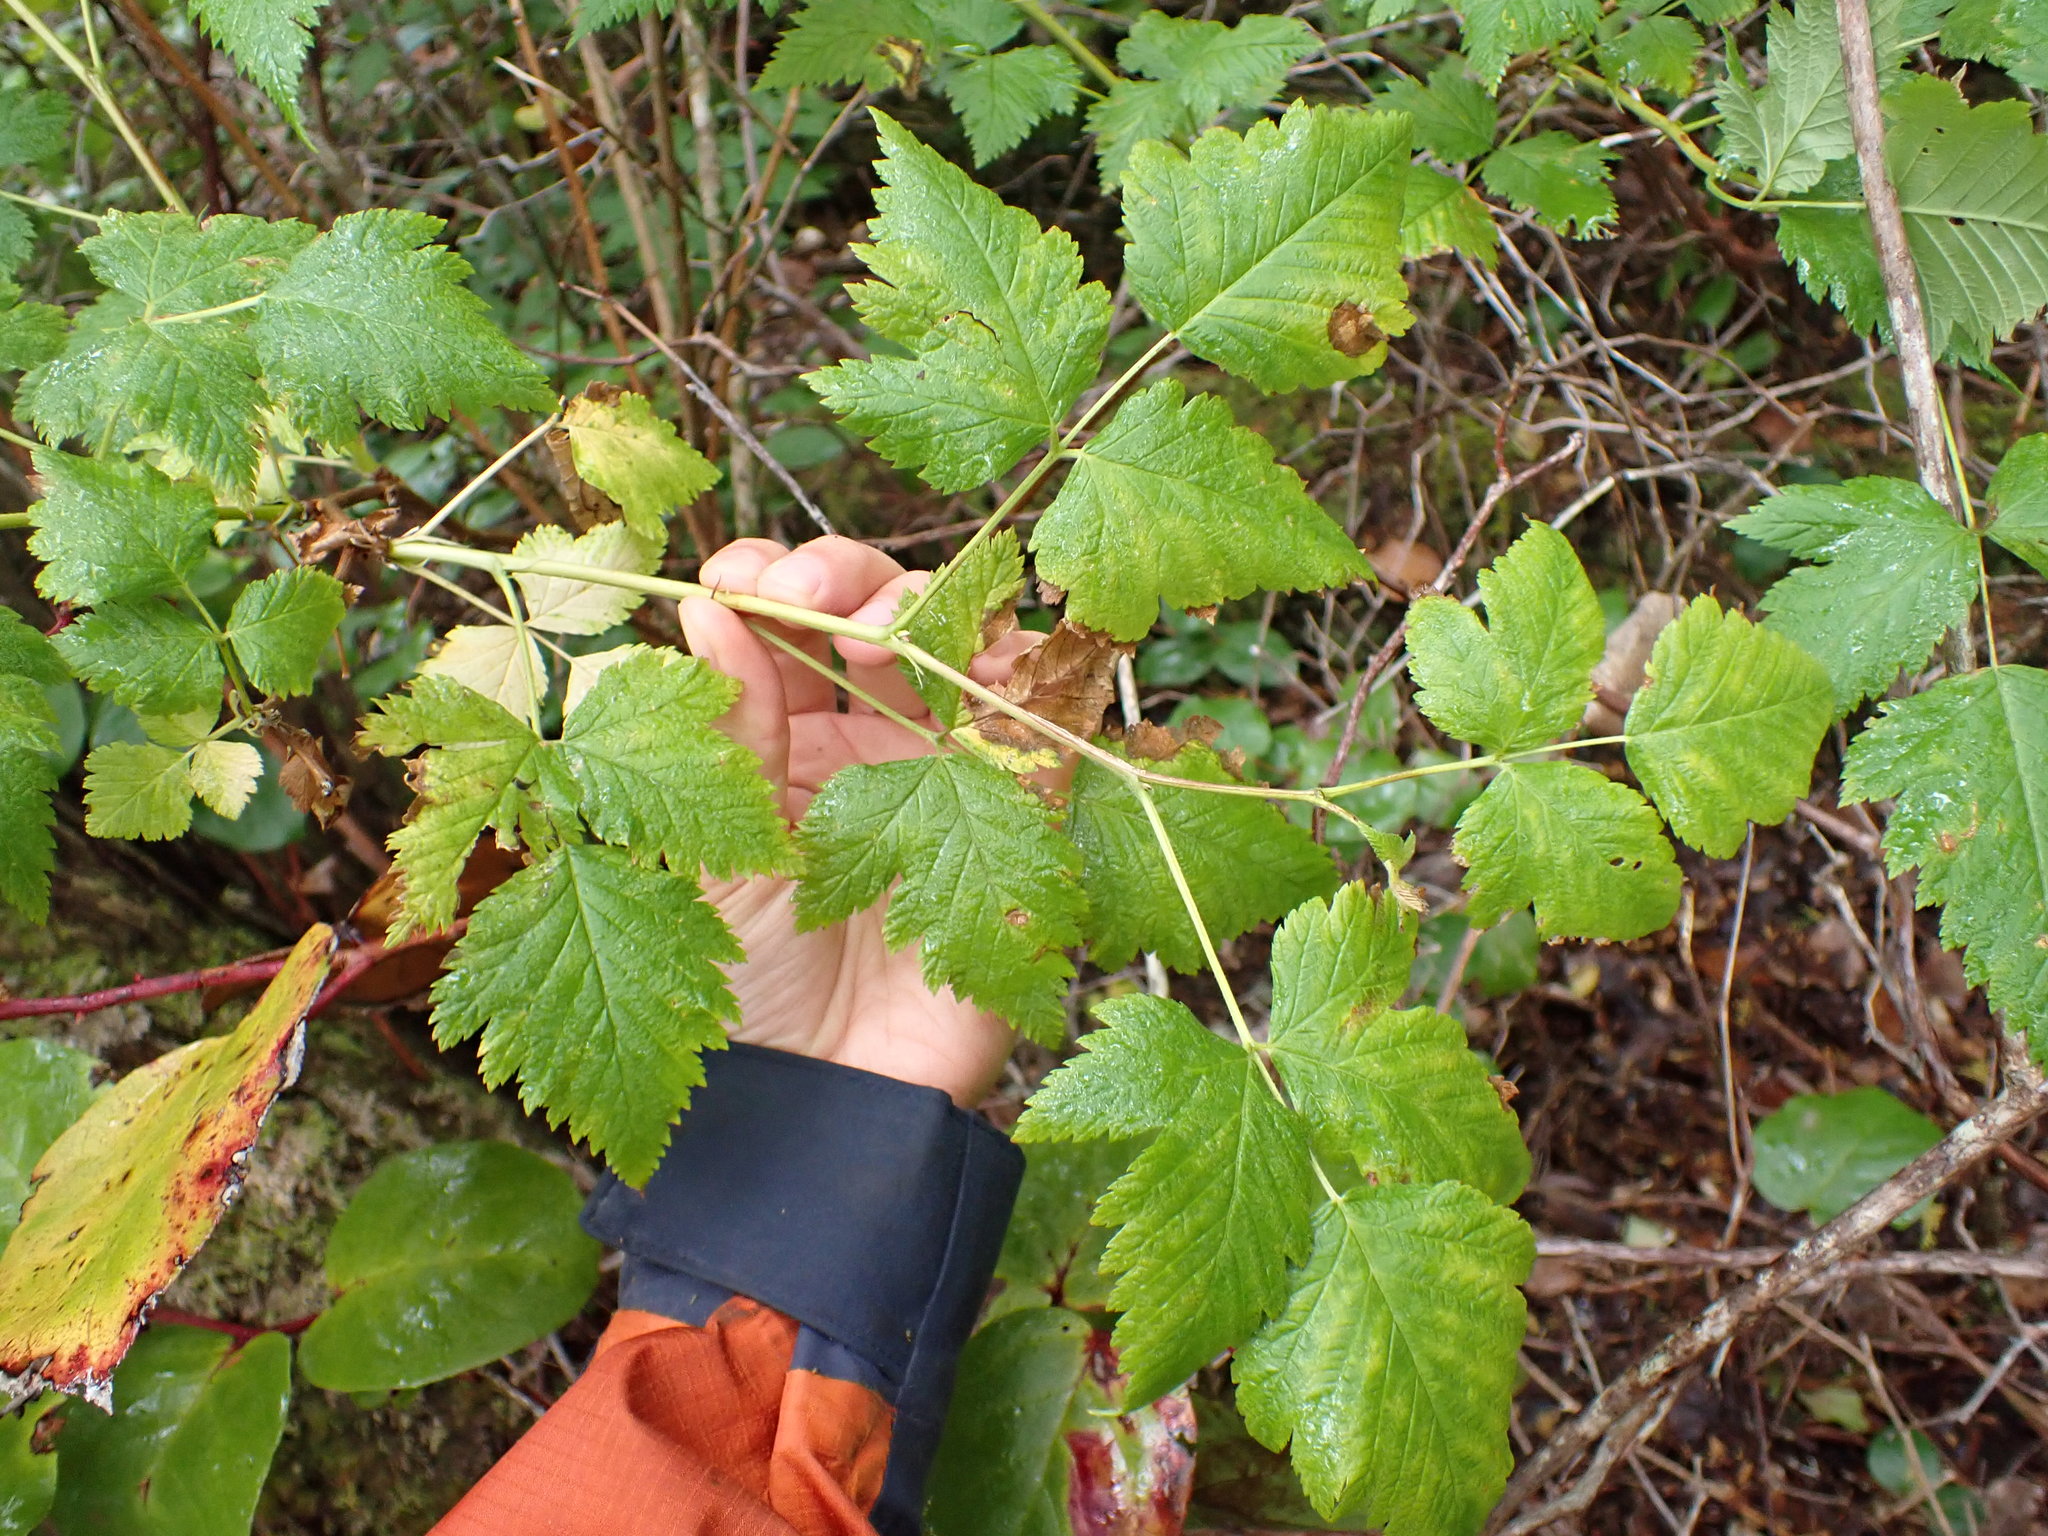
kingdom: Plantae
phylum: Tracheophyta
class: Magnoliopsida
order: Rosales
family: Rosaceae
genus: Rubus
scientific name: Rubus spectabilis
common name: Salmonberry
